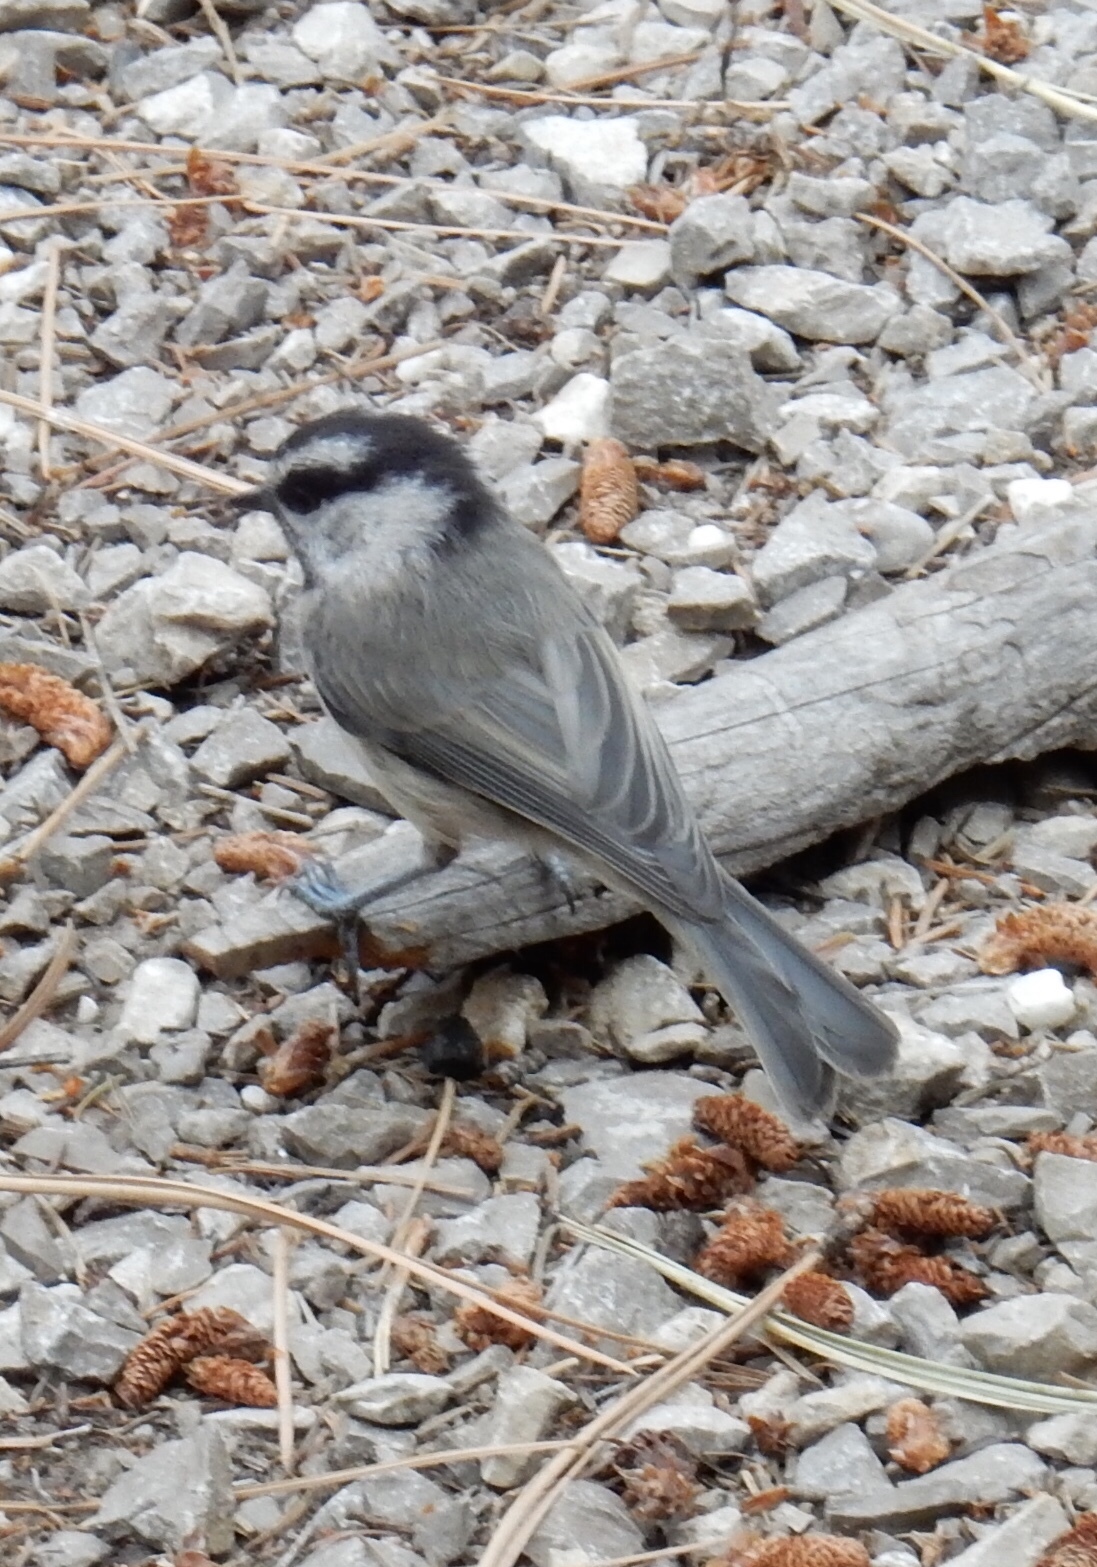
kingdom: Animalia
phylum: Chordata
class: Aves
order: Passeriformes
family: Paridae
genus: Poecile
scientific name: Poecile gambeli
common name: Mountain chickadee
